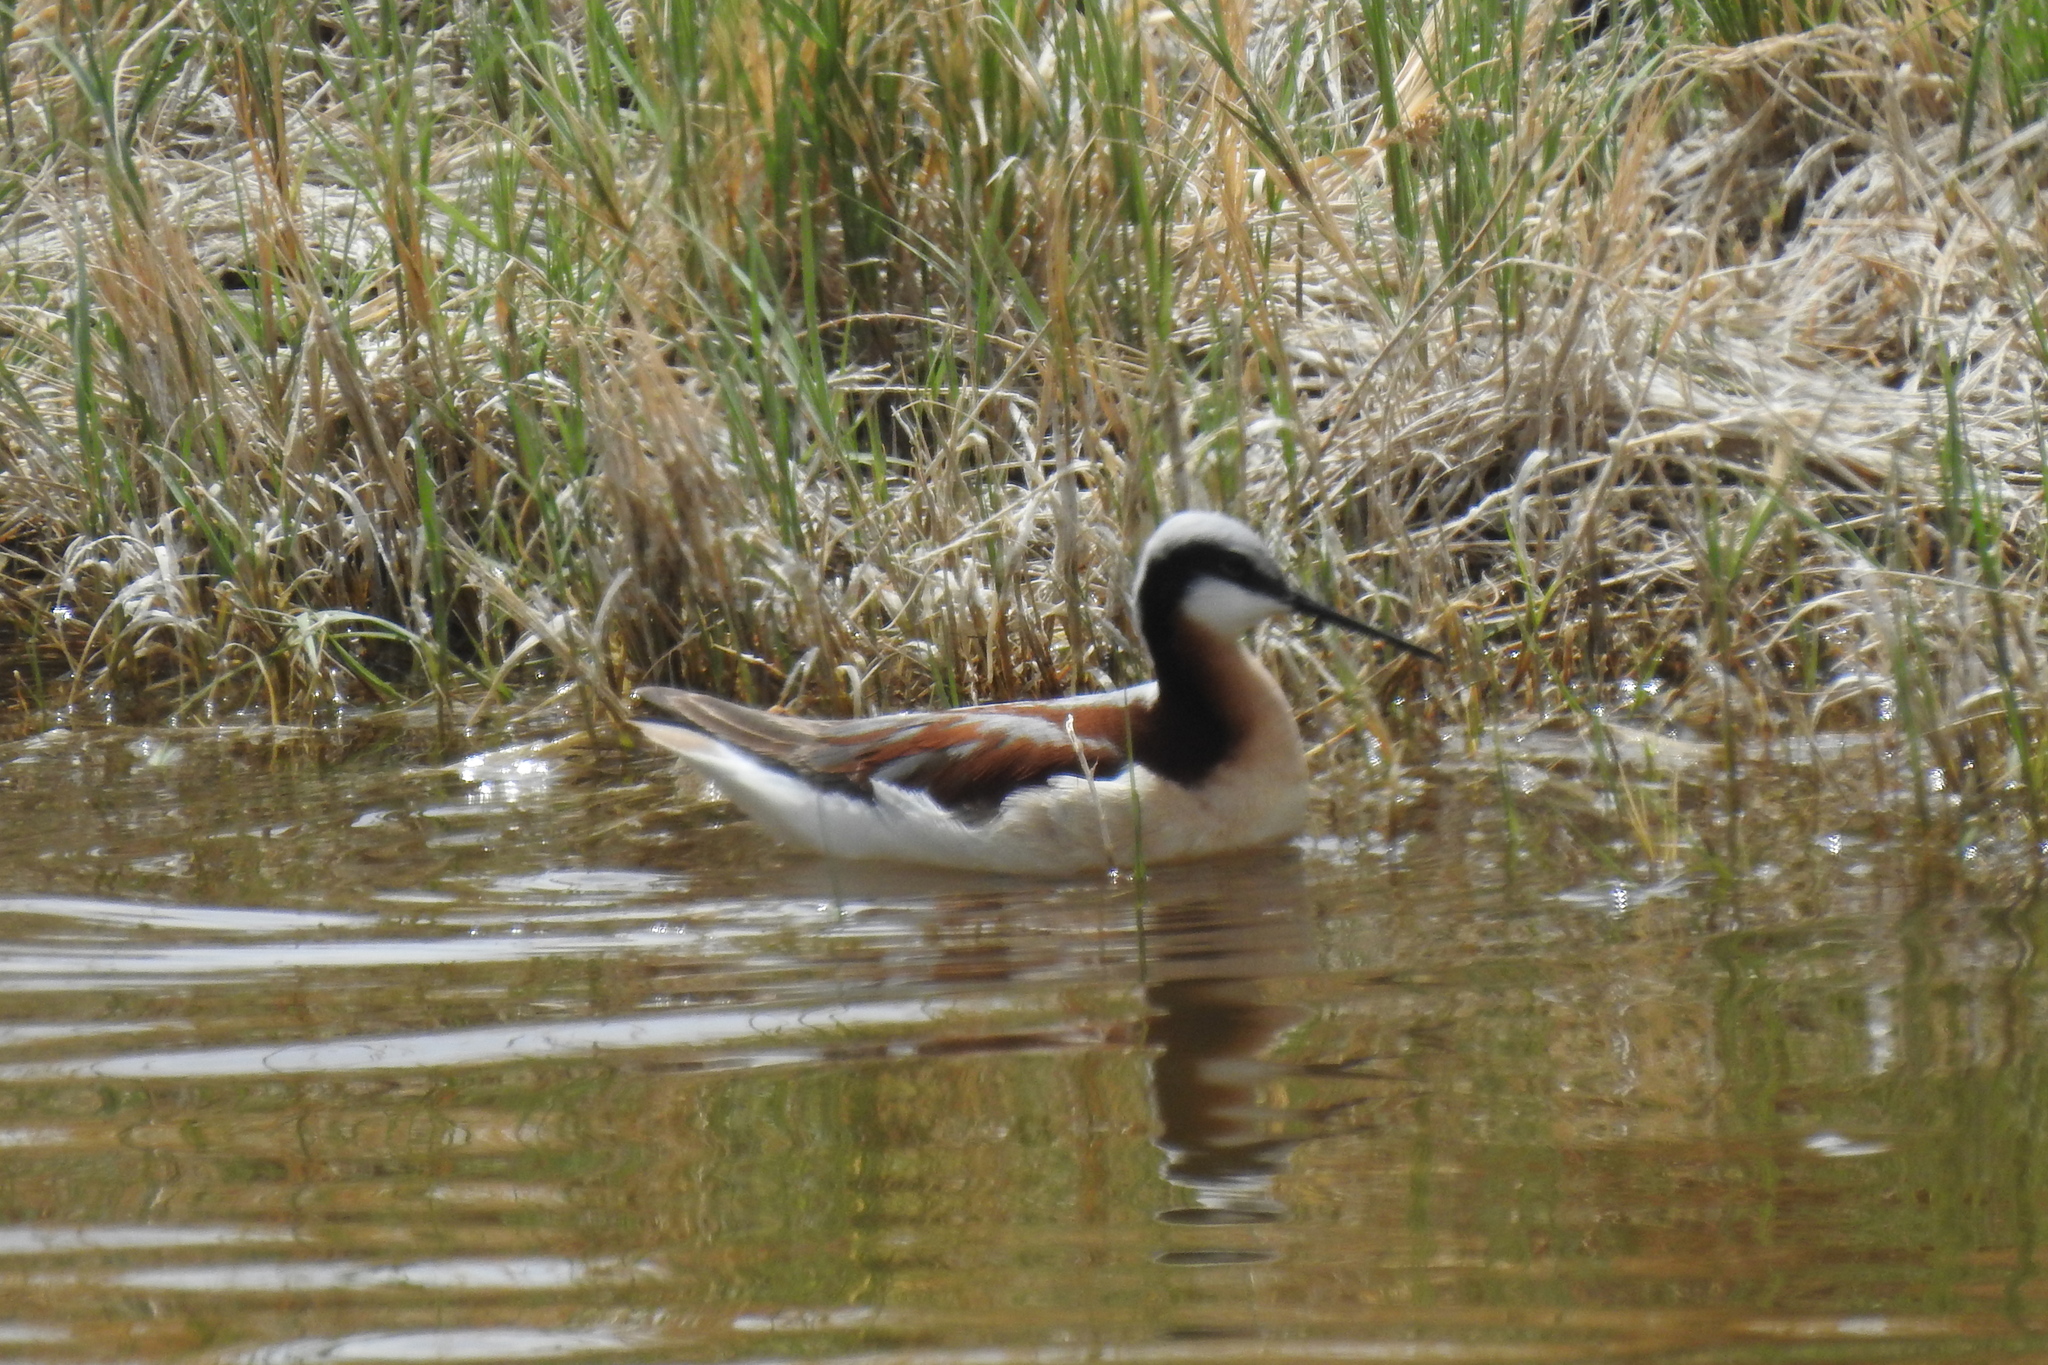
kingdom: Animalia
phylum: Chordata
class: Aves
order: Charadriiformes
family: Scolopacidae
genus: Phalaropus
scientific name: Phalaropus tricolor
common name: Wilson's phalarope
